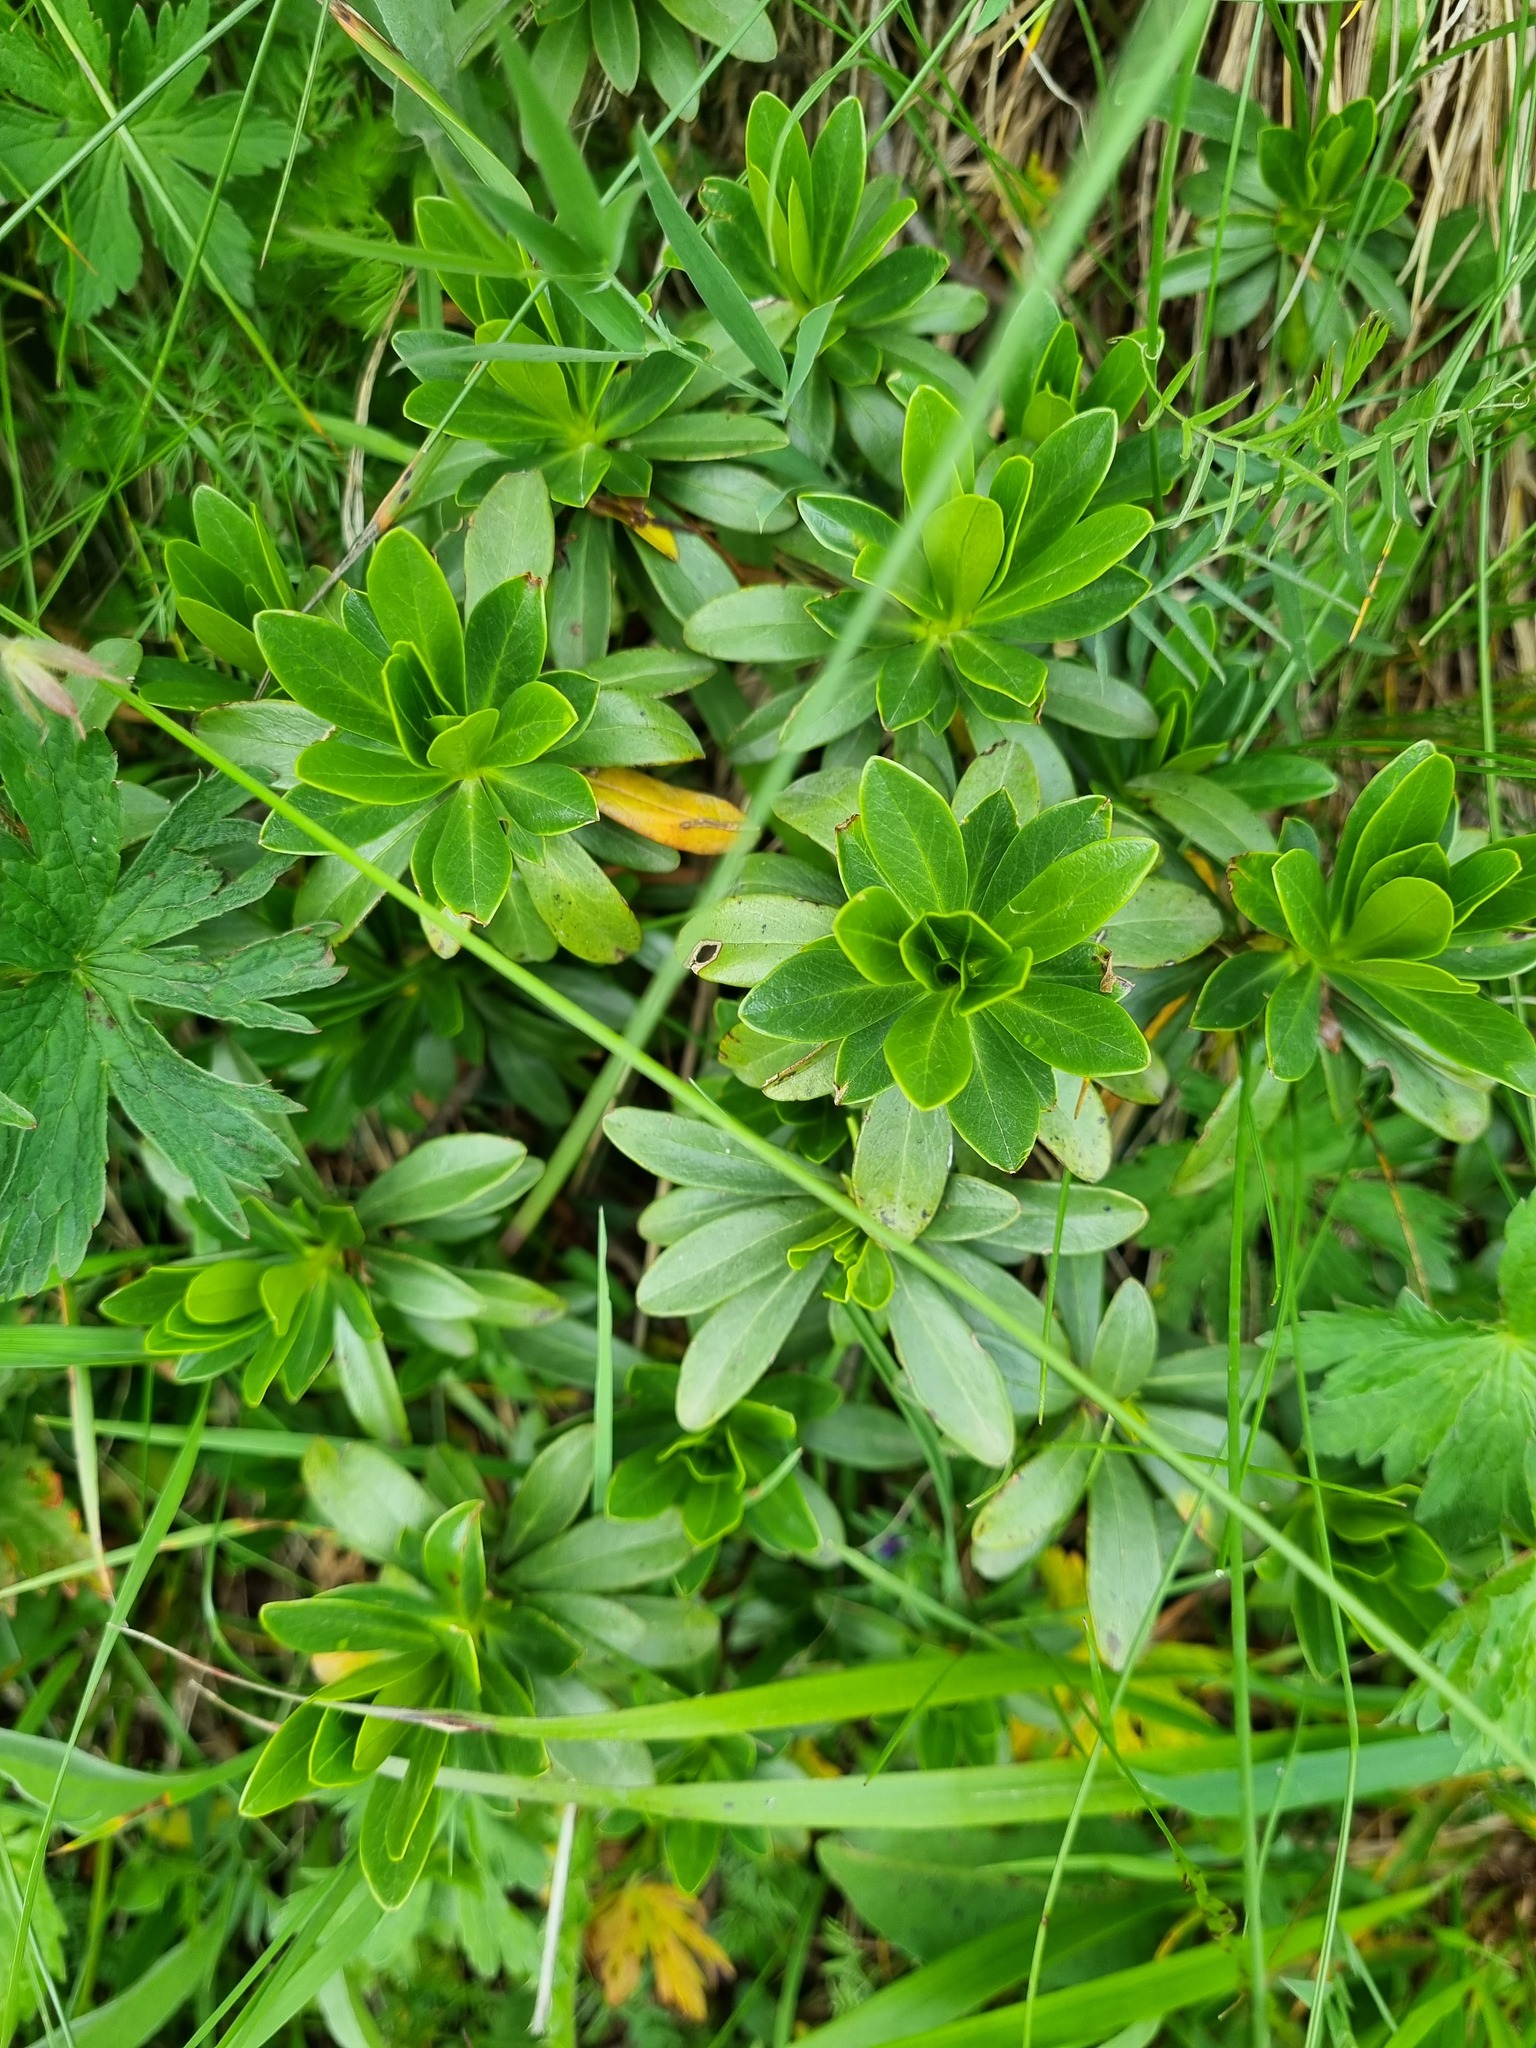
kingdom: Plantae
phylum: Tracheophyta
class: Magnoliopsida
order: Malvales
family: Thymelaeaceae
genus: Daphne
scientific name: Daphne glomerata
